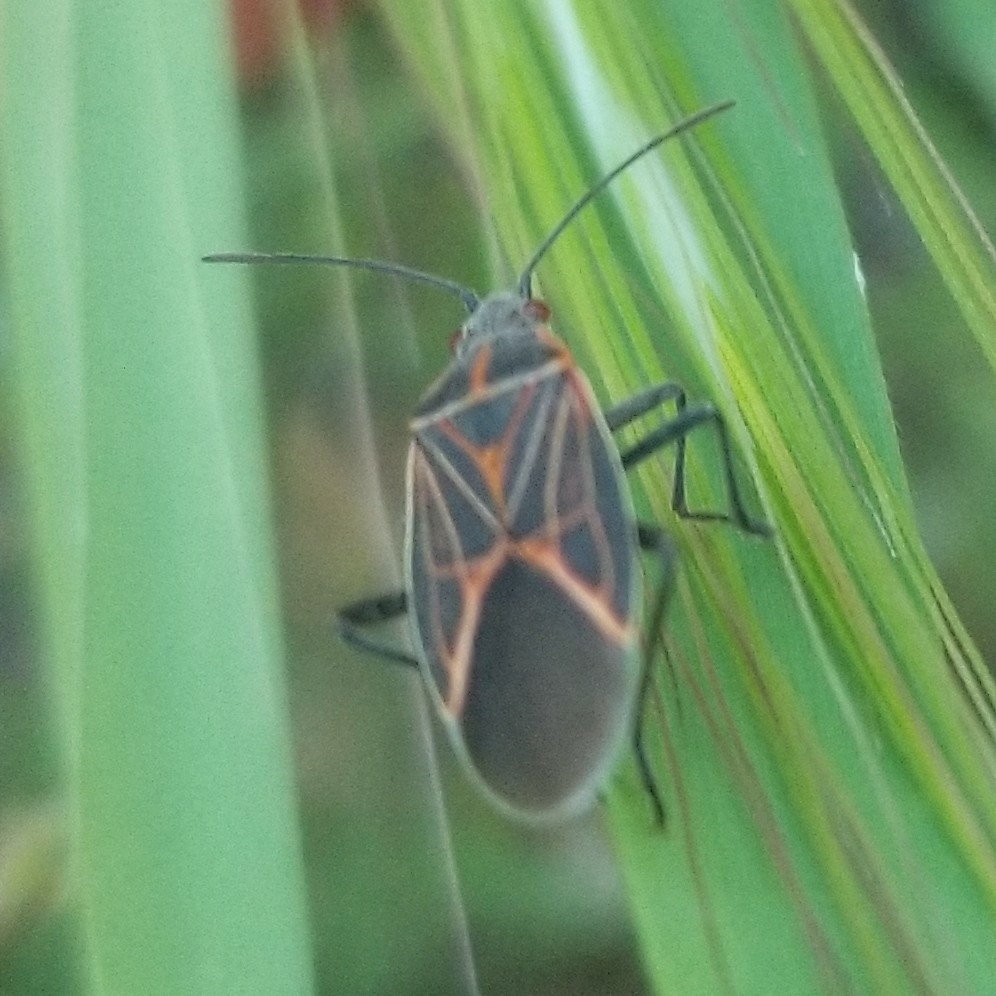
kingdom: Animalia
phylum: Arthropoda
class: Insecta
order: Hemiptera
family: Rhopalidae
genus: Boisea
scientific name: Boisea rubrolineata
